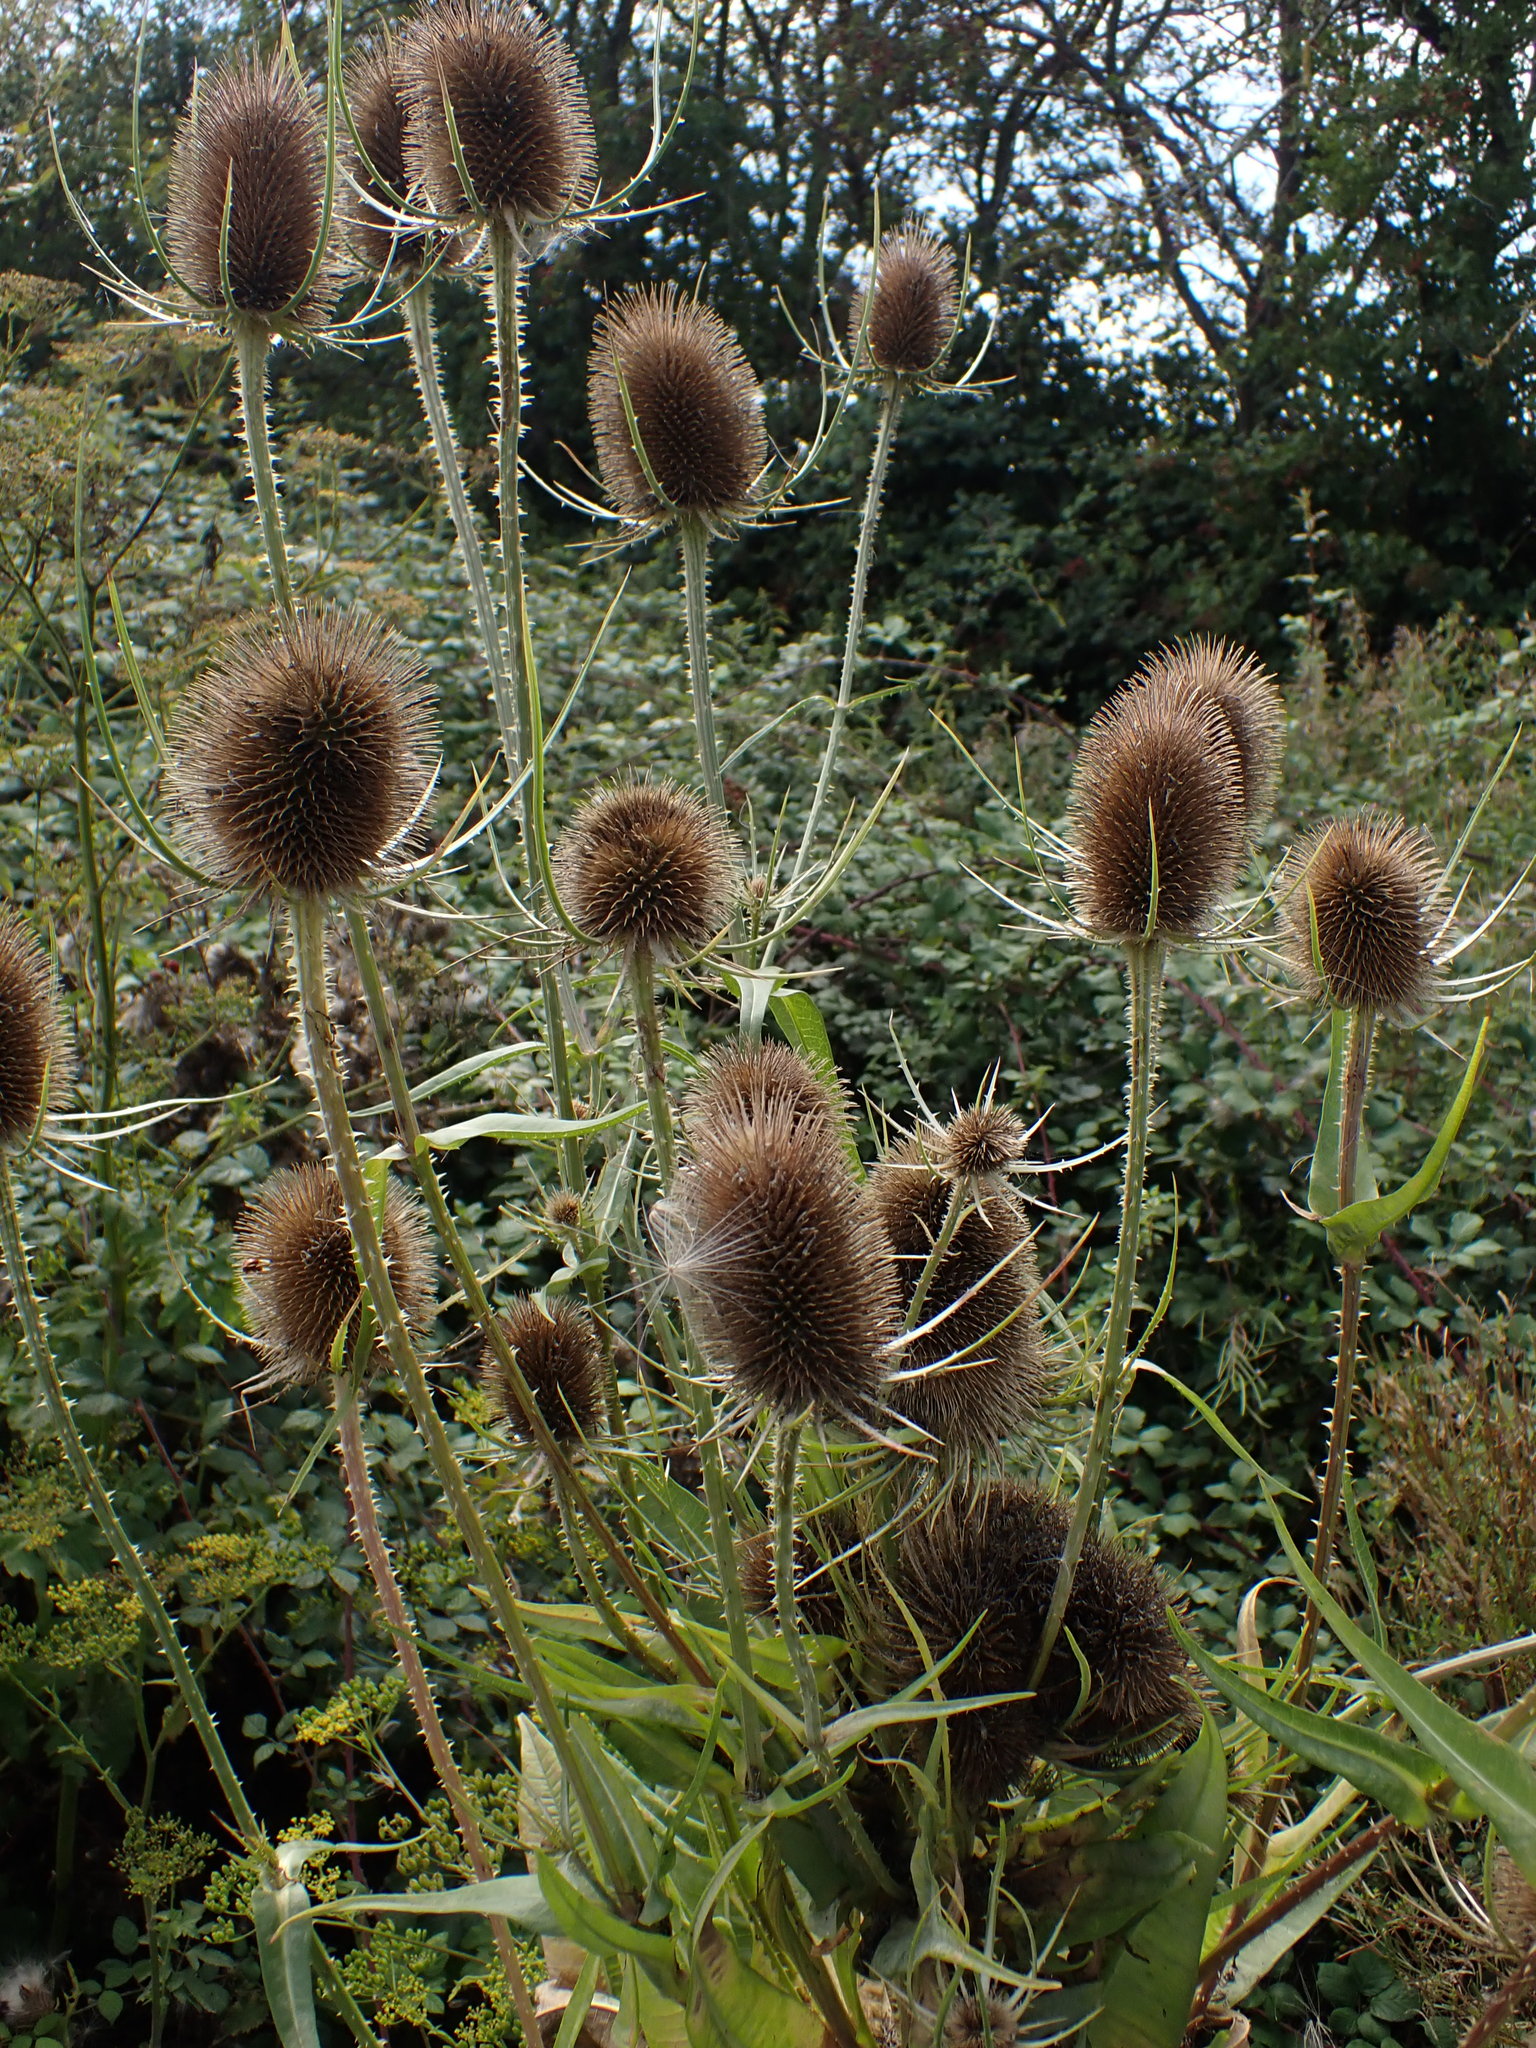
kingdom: Plantae
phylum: Tracheophyta
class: Magnoliopsida
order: Dipsacales
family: Caprifoliaceae
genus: Dipsacus
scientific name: Dipsacus fullonum
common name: Teasel
